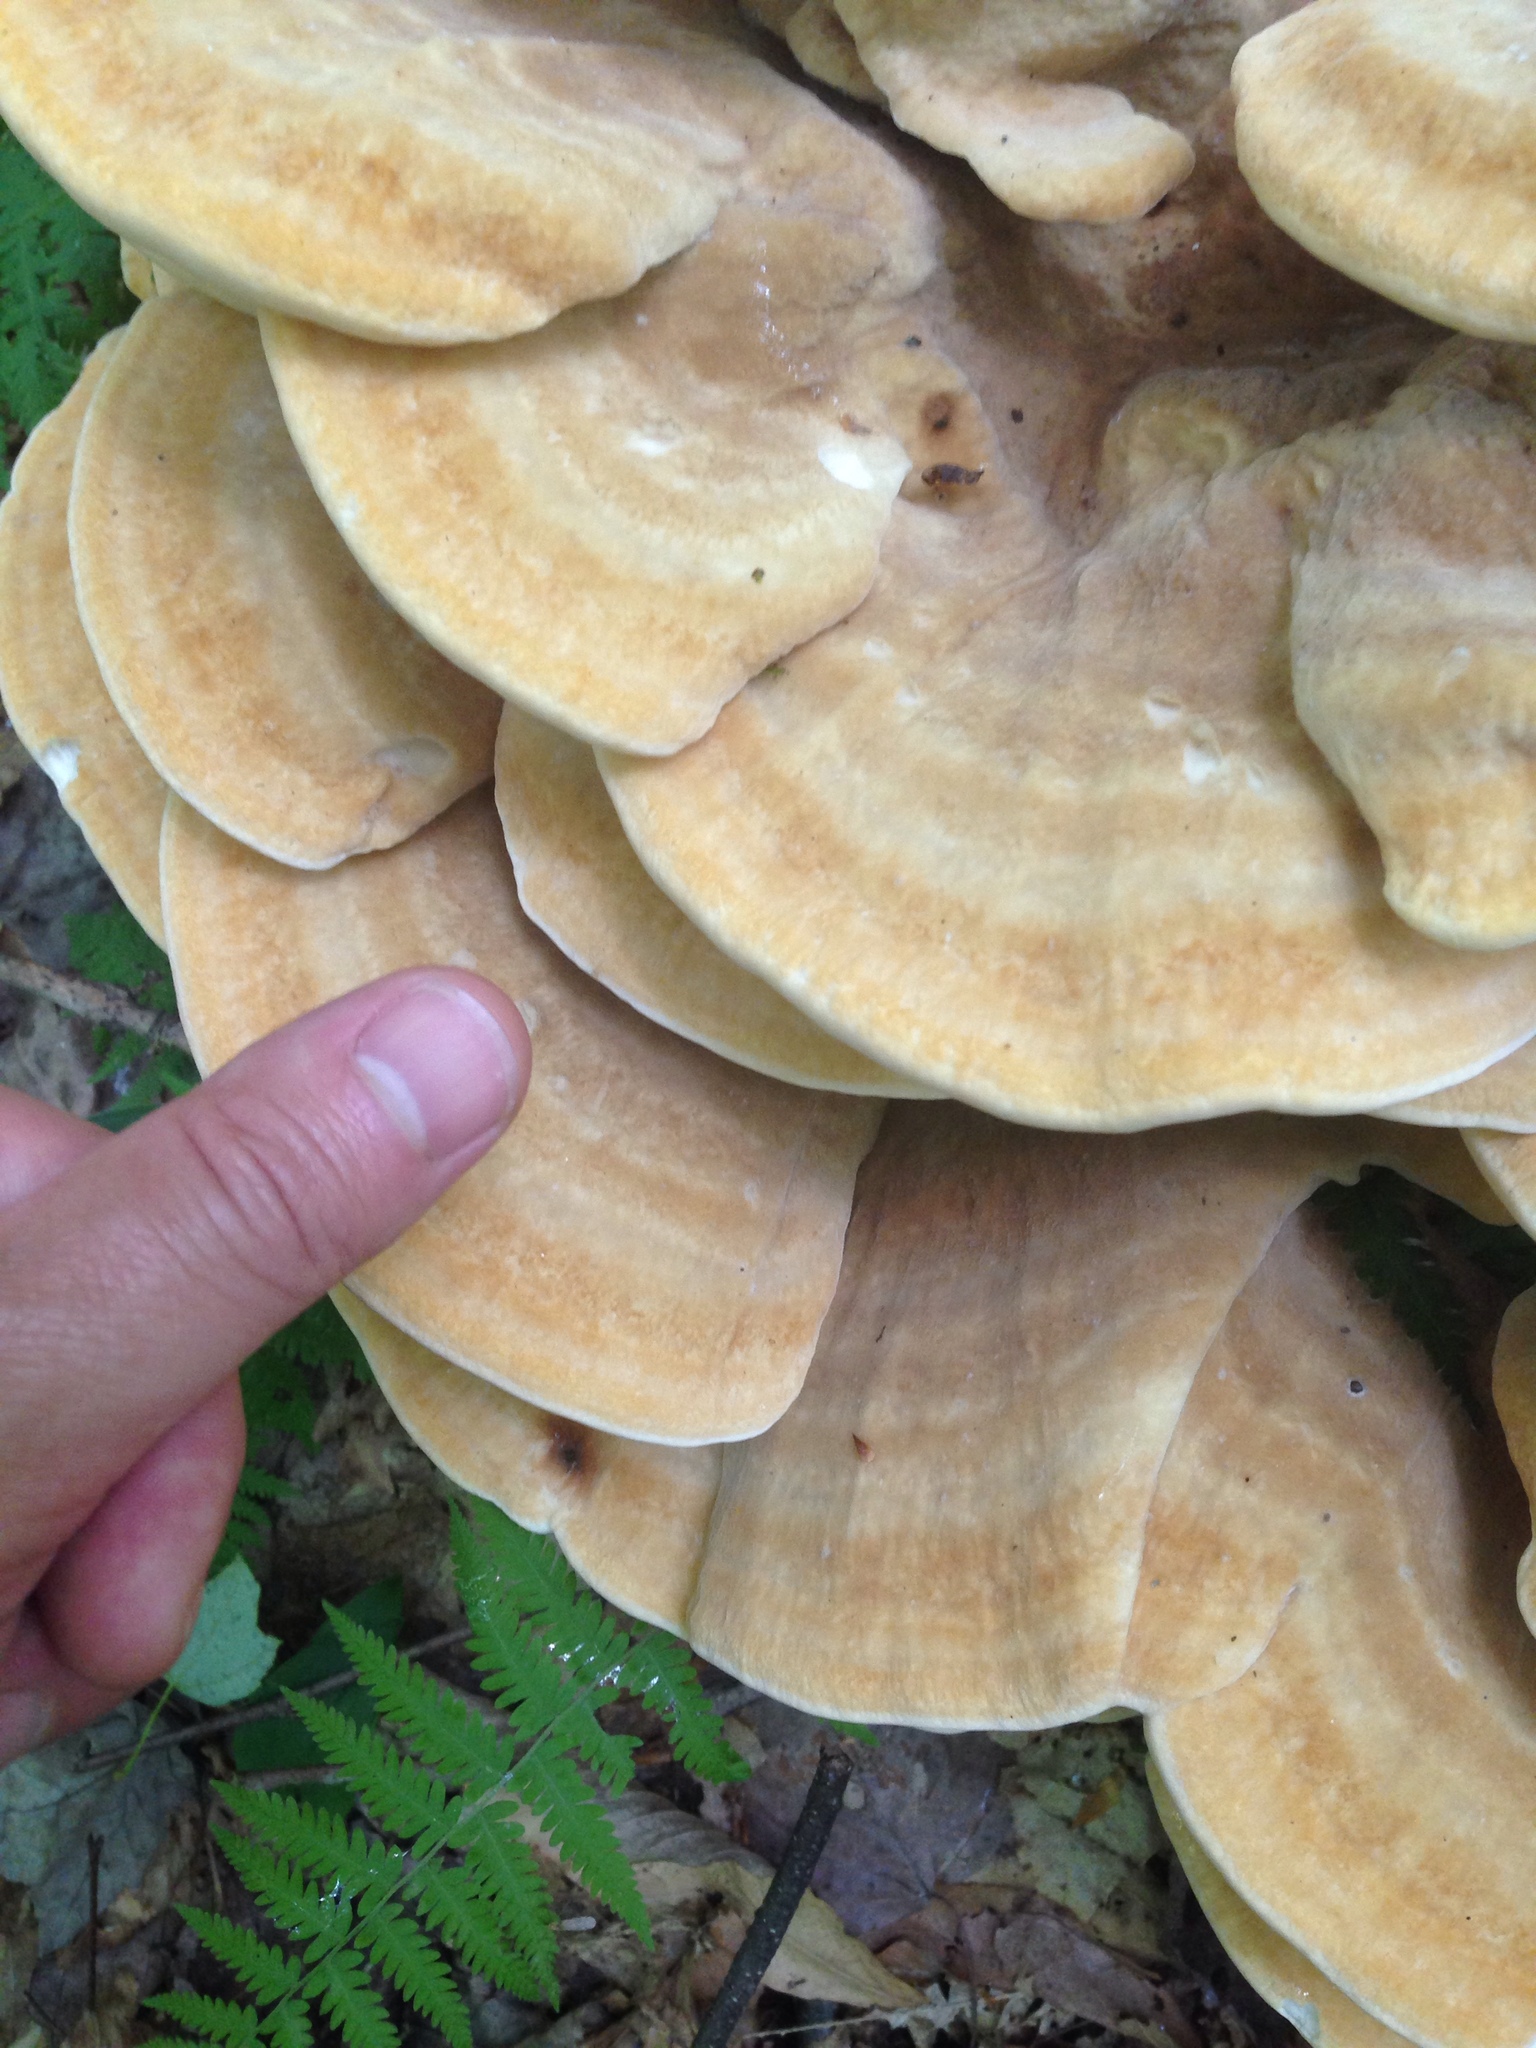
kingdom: Fungi
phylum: Basidiomycota
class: Agaricomycetes
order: Russulales
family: Bondarzewiaceae
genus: Bondarzewia
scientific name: Bondarzewia berkeleyi
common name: Berkeley's polypore
